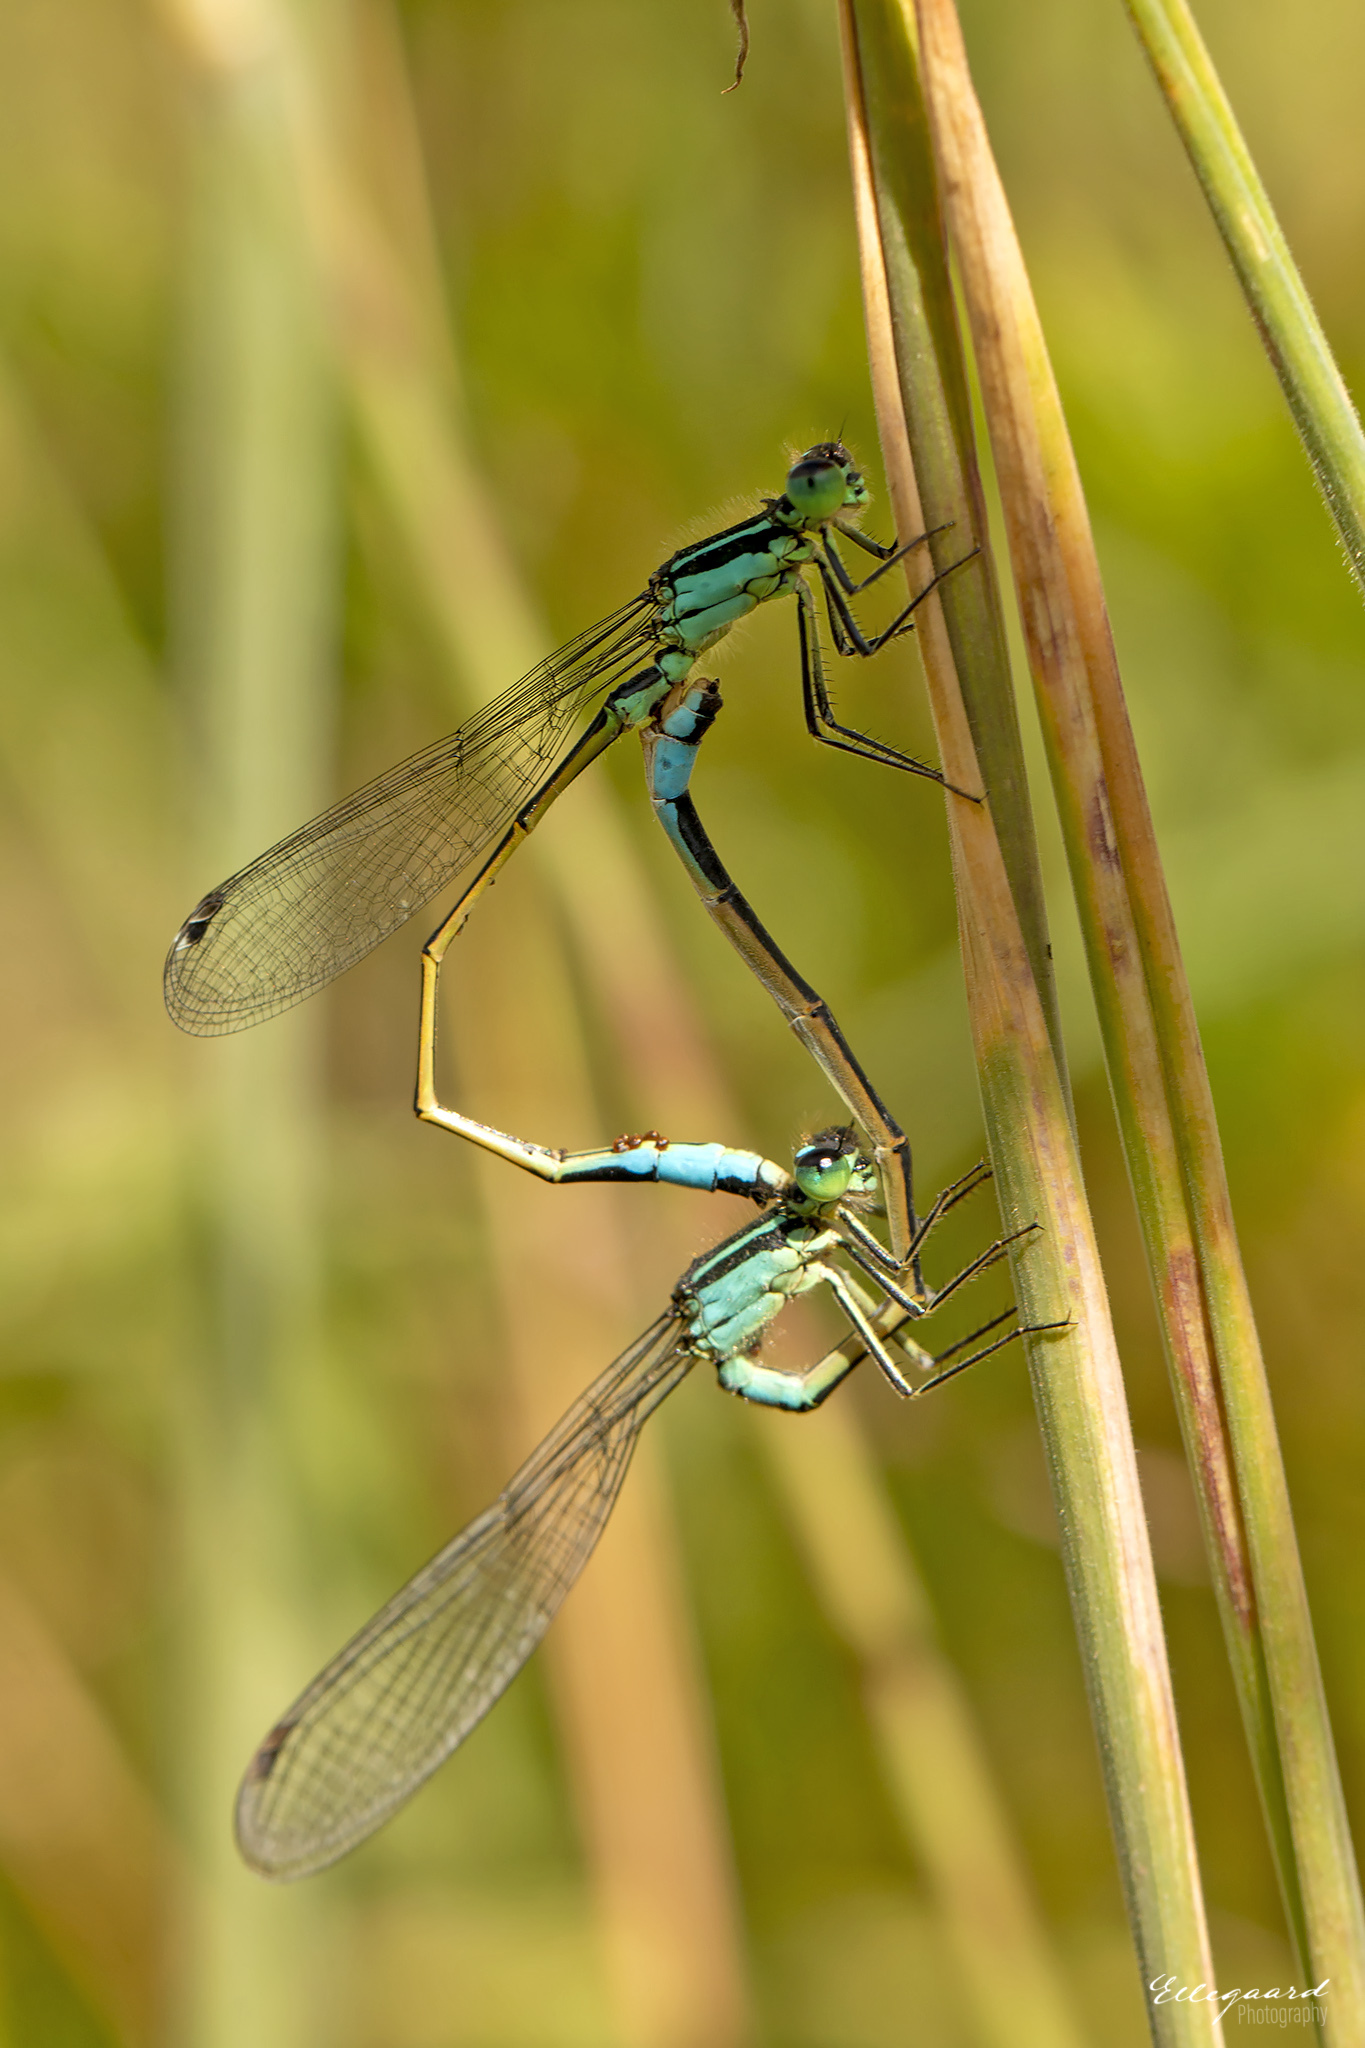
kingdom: Animalia
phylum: Arthropoda
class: Insecta
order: Odonata
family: Coenagrionidae
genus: Ischnura
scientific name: Ischnura elegans
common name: Blue-tailed damselfly
